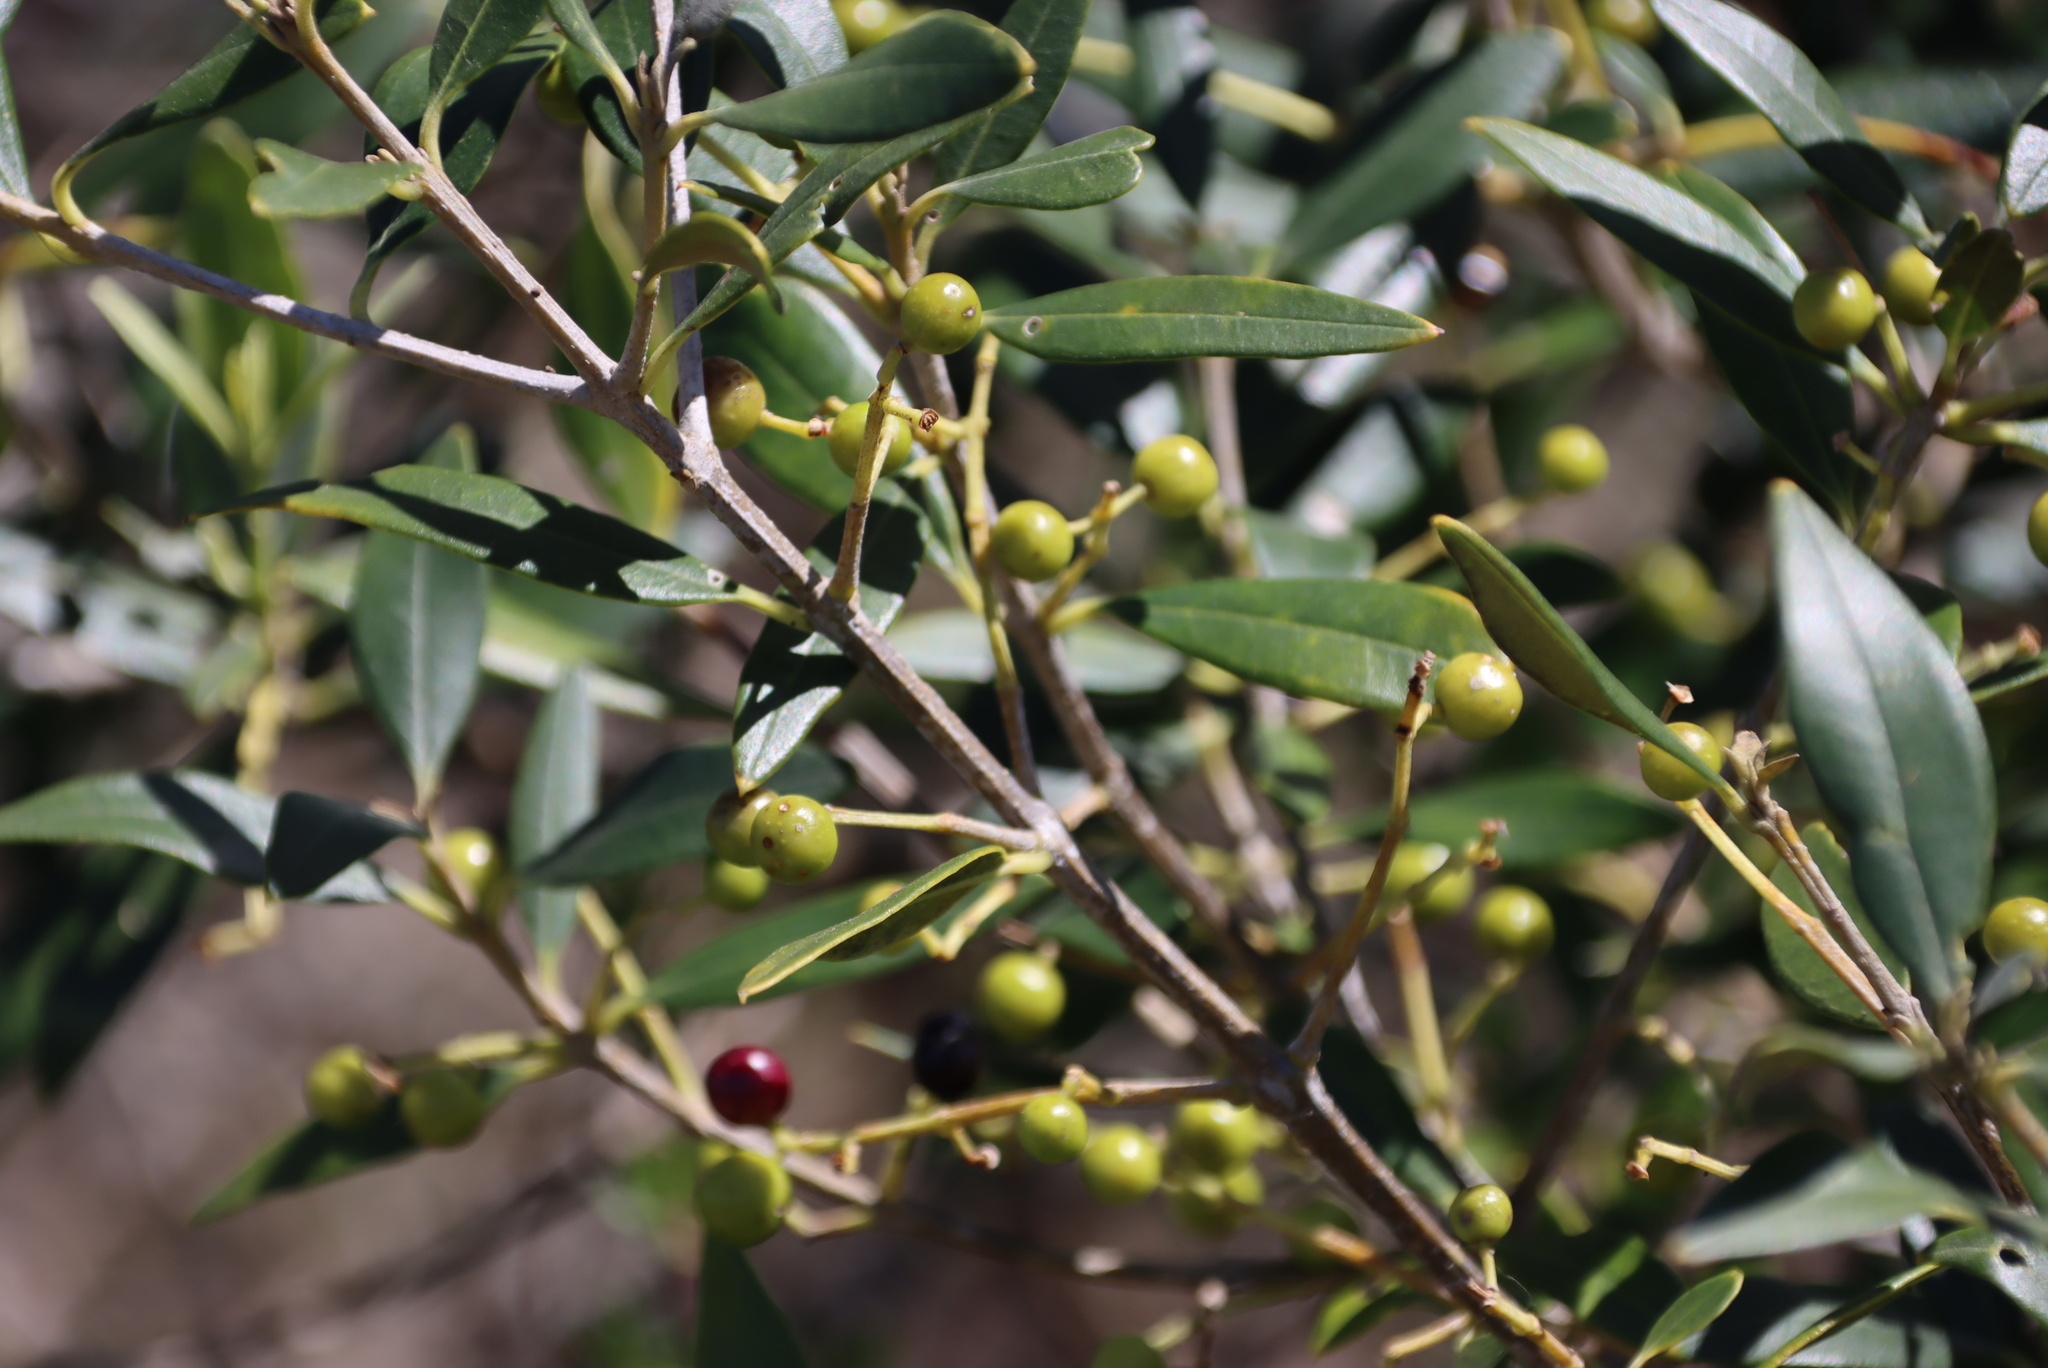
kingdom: Plantae
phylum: Tracheophyta
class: Magnoliopsida
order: Lamiales
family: Oleaceae
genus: Olea
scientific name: Olea europaea
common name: Olive
